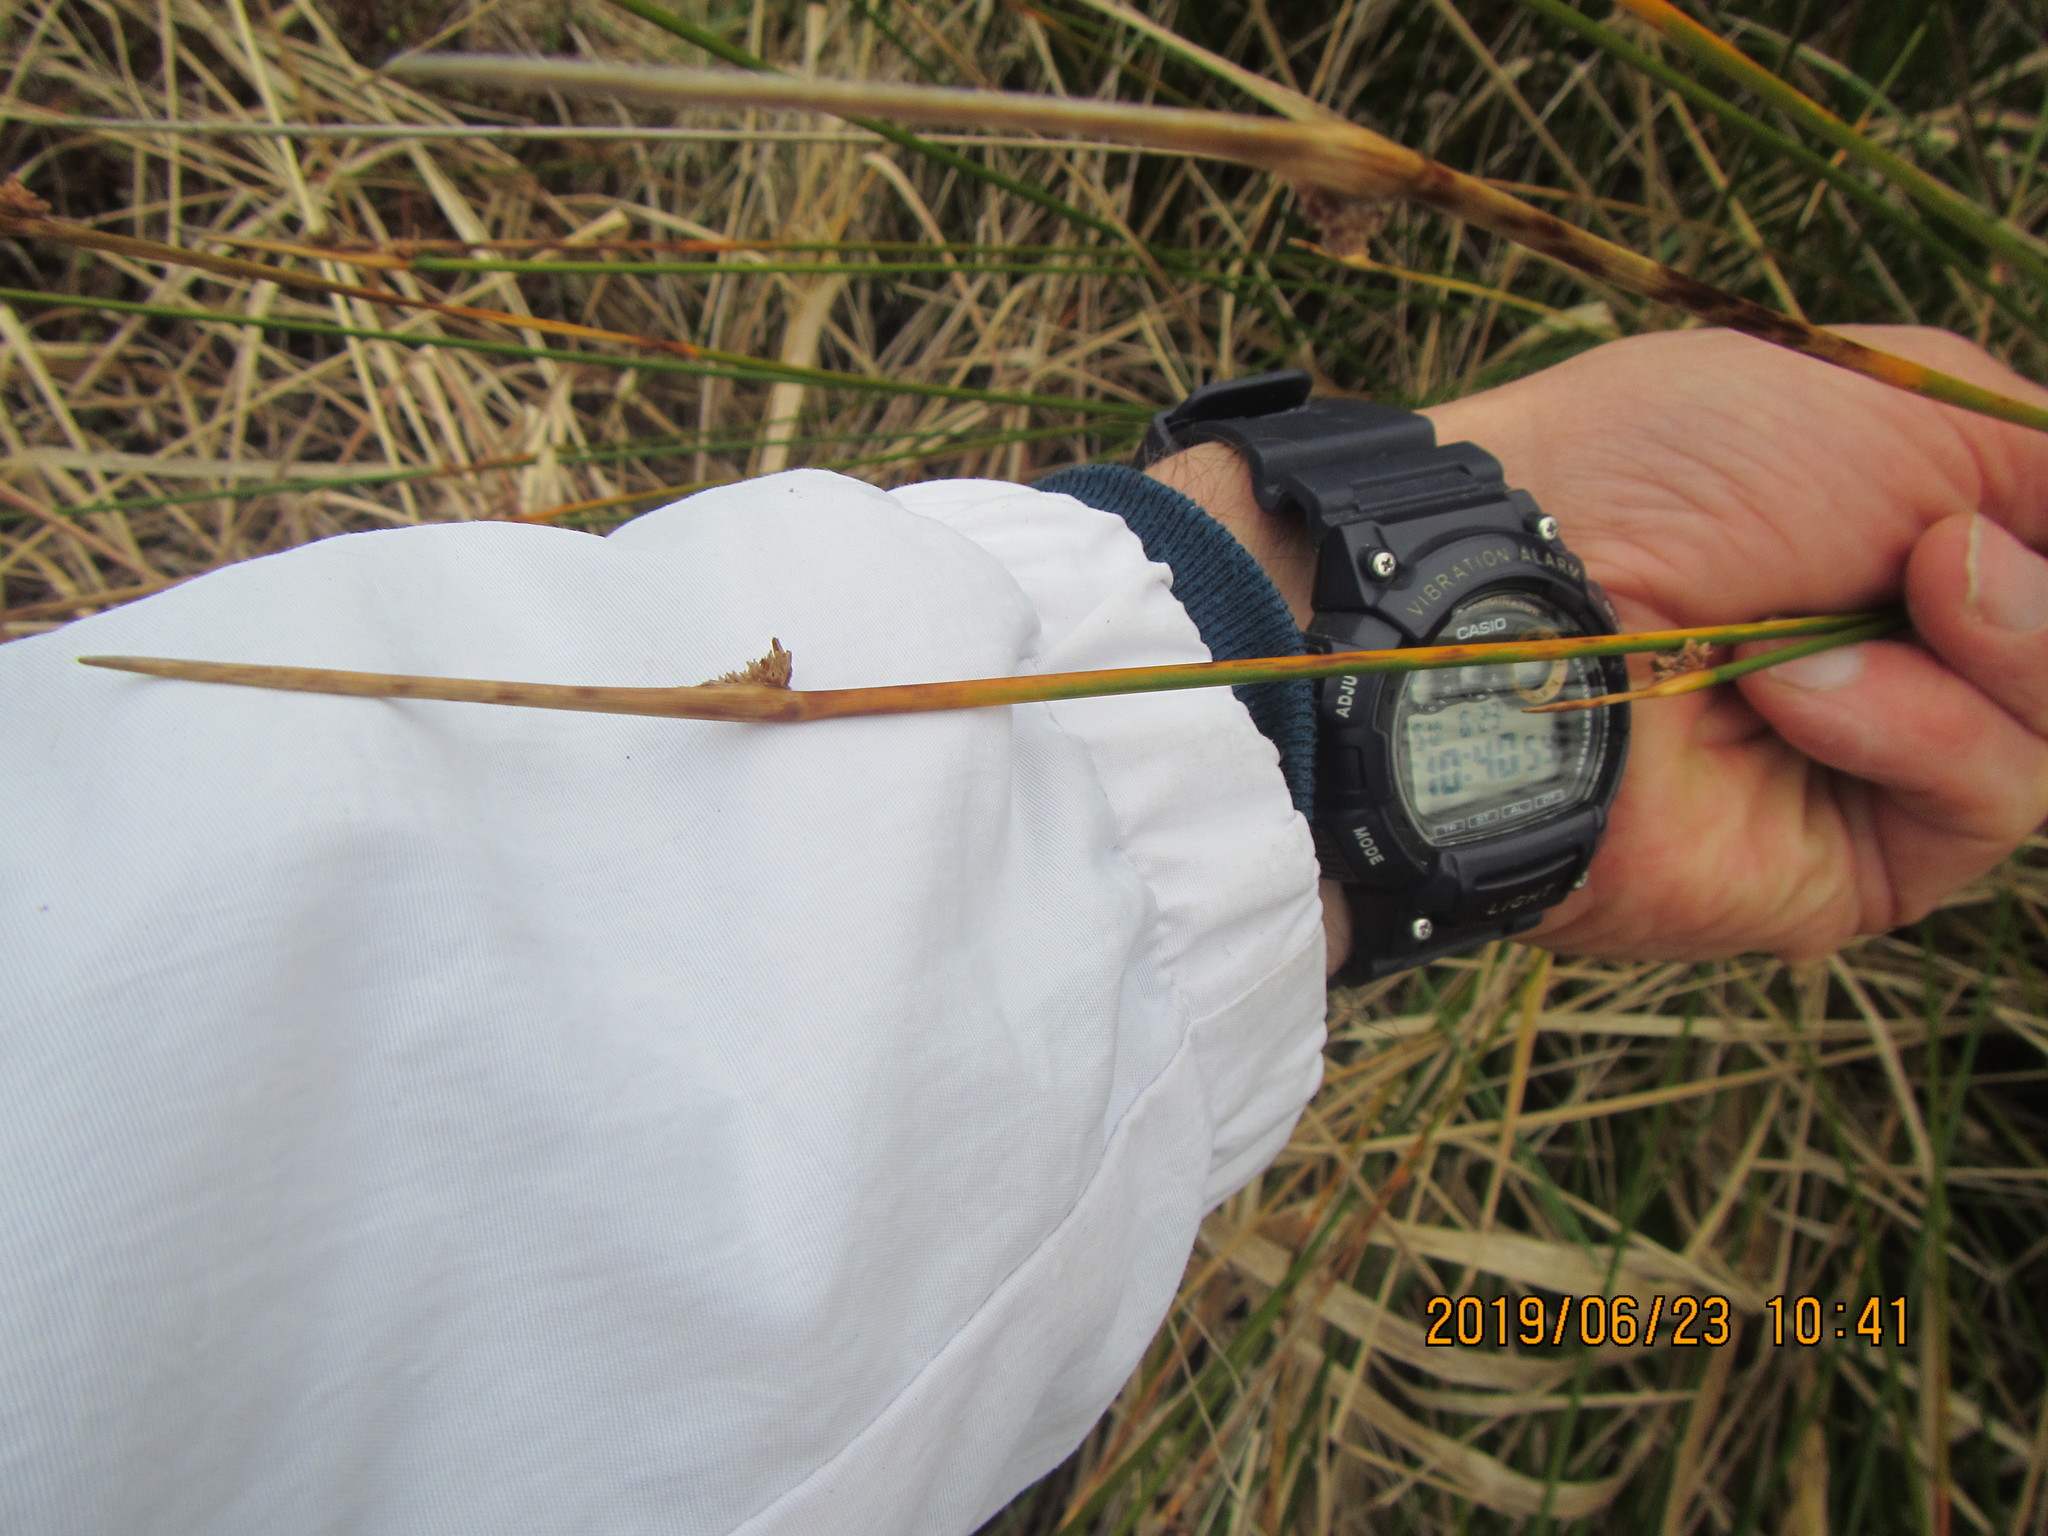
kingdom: Plantae
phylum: Tracheophyta
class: Liliopsida
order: Poales
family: Cyperaceae
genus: Ficinia
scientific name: Ficinia nodosa
